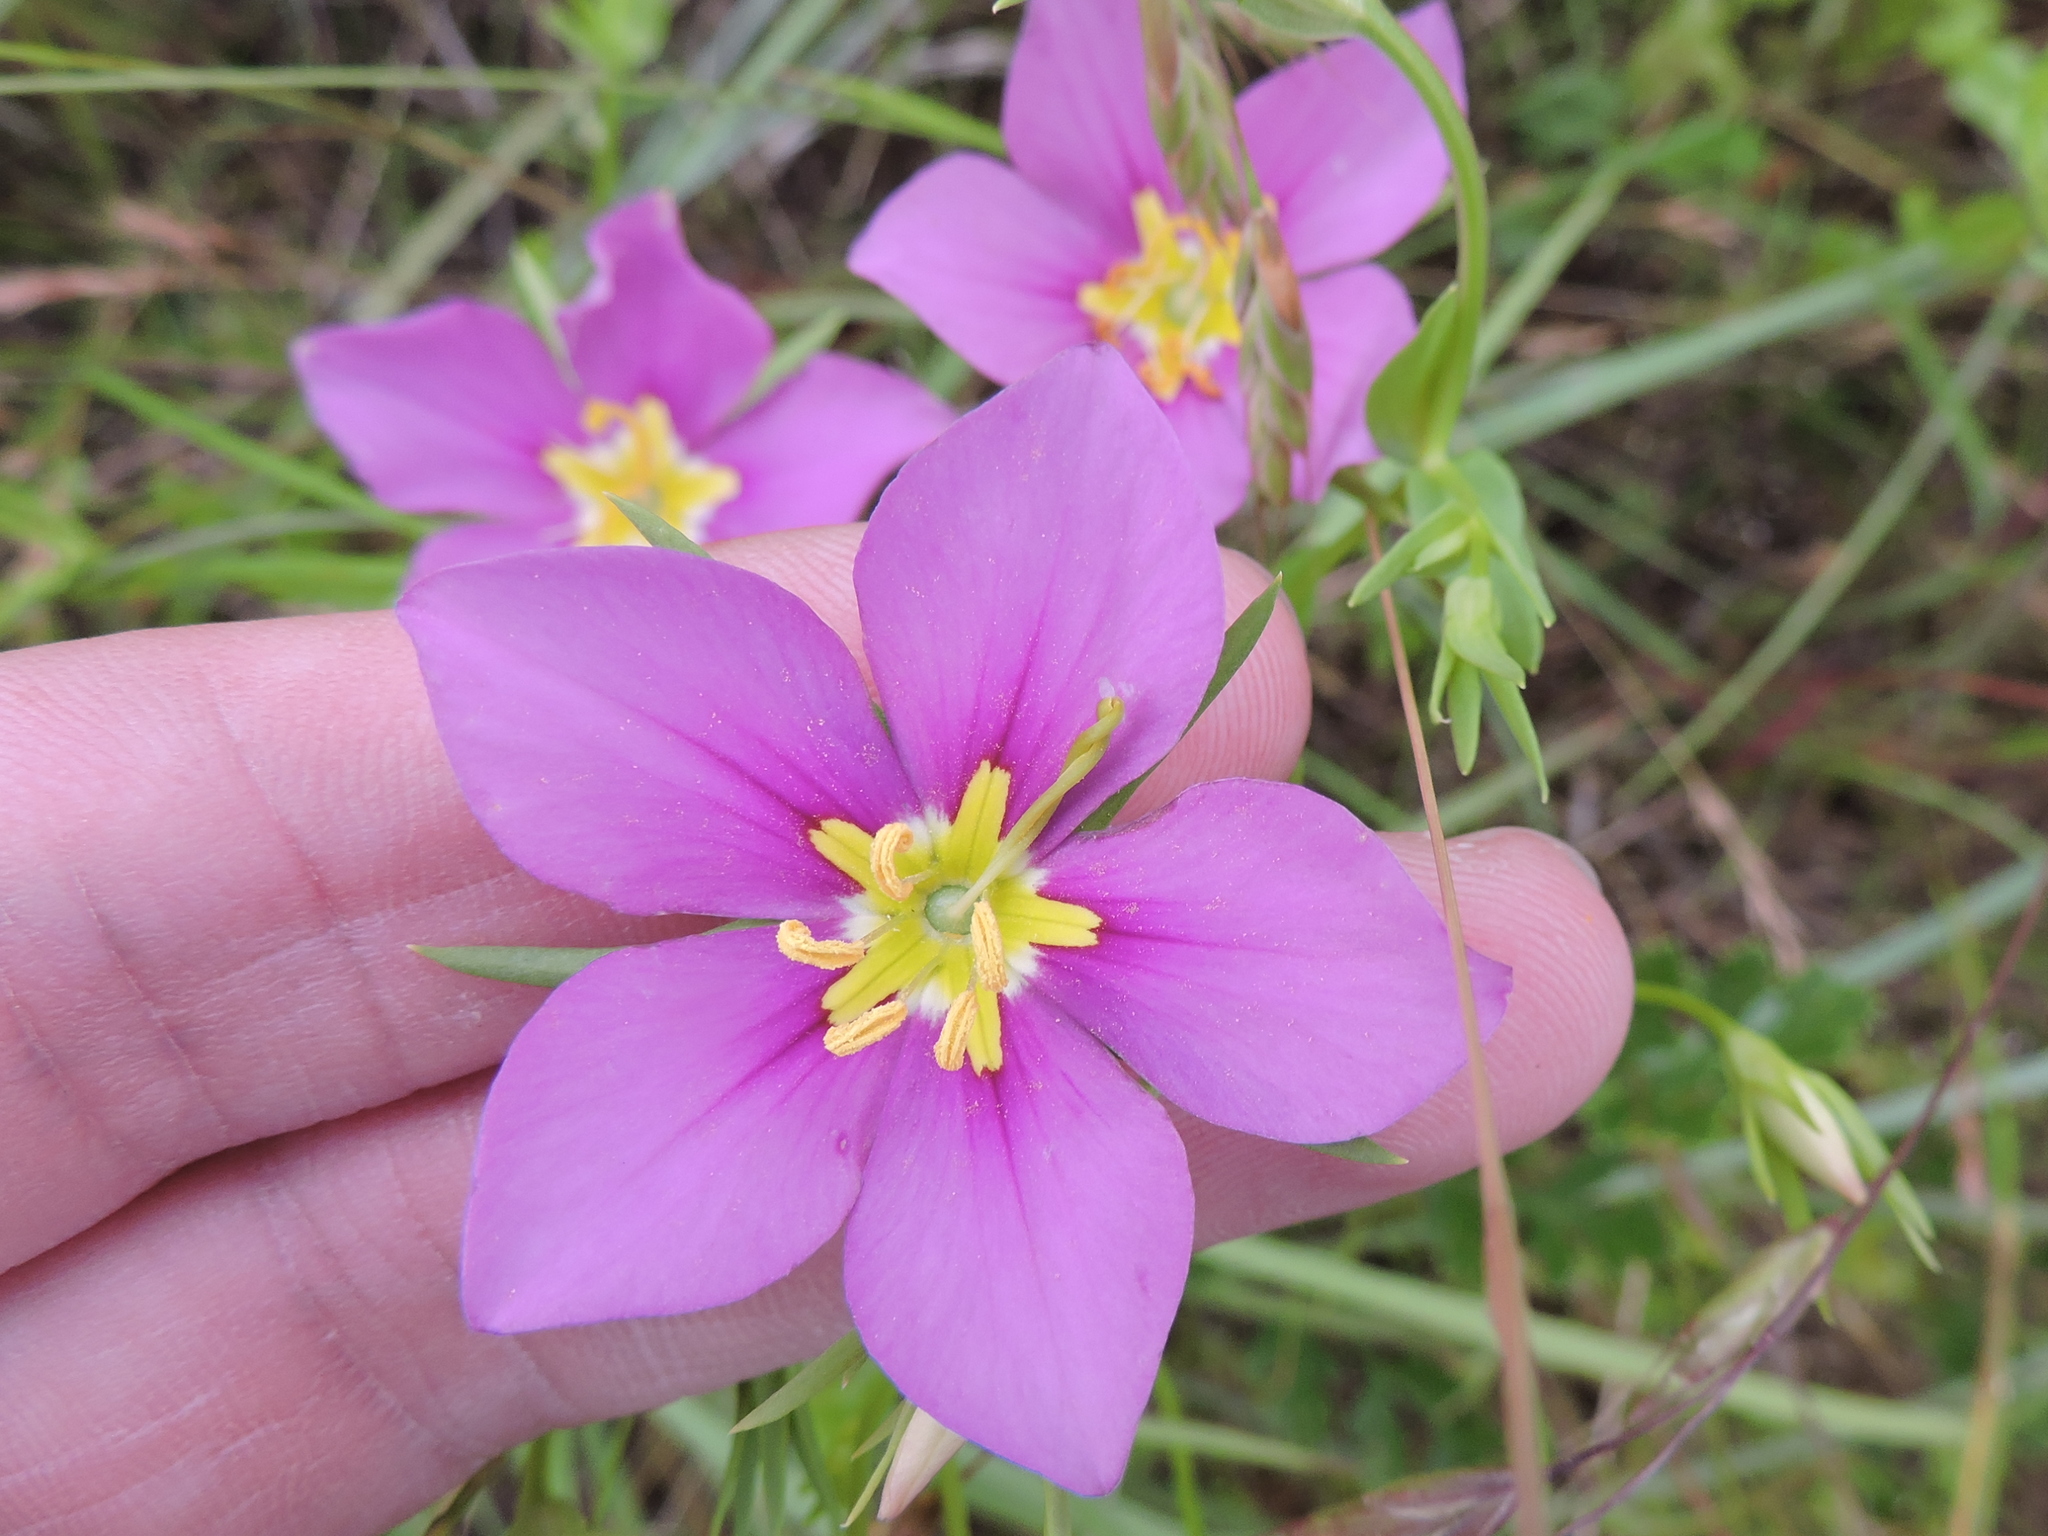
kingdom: Plantae
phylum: Tracheophyta
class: Magnoliopsida
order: Gentianales
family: Gentianaceae
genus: Sabatia
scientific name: Sabatia campestris
